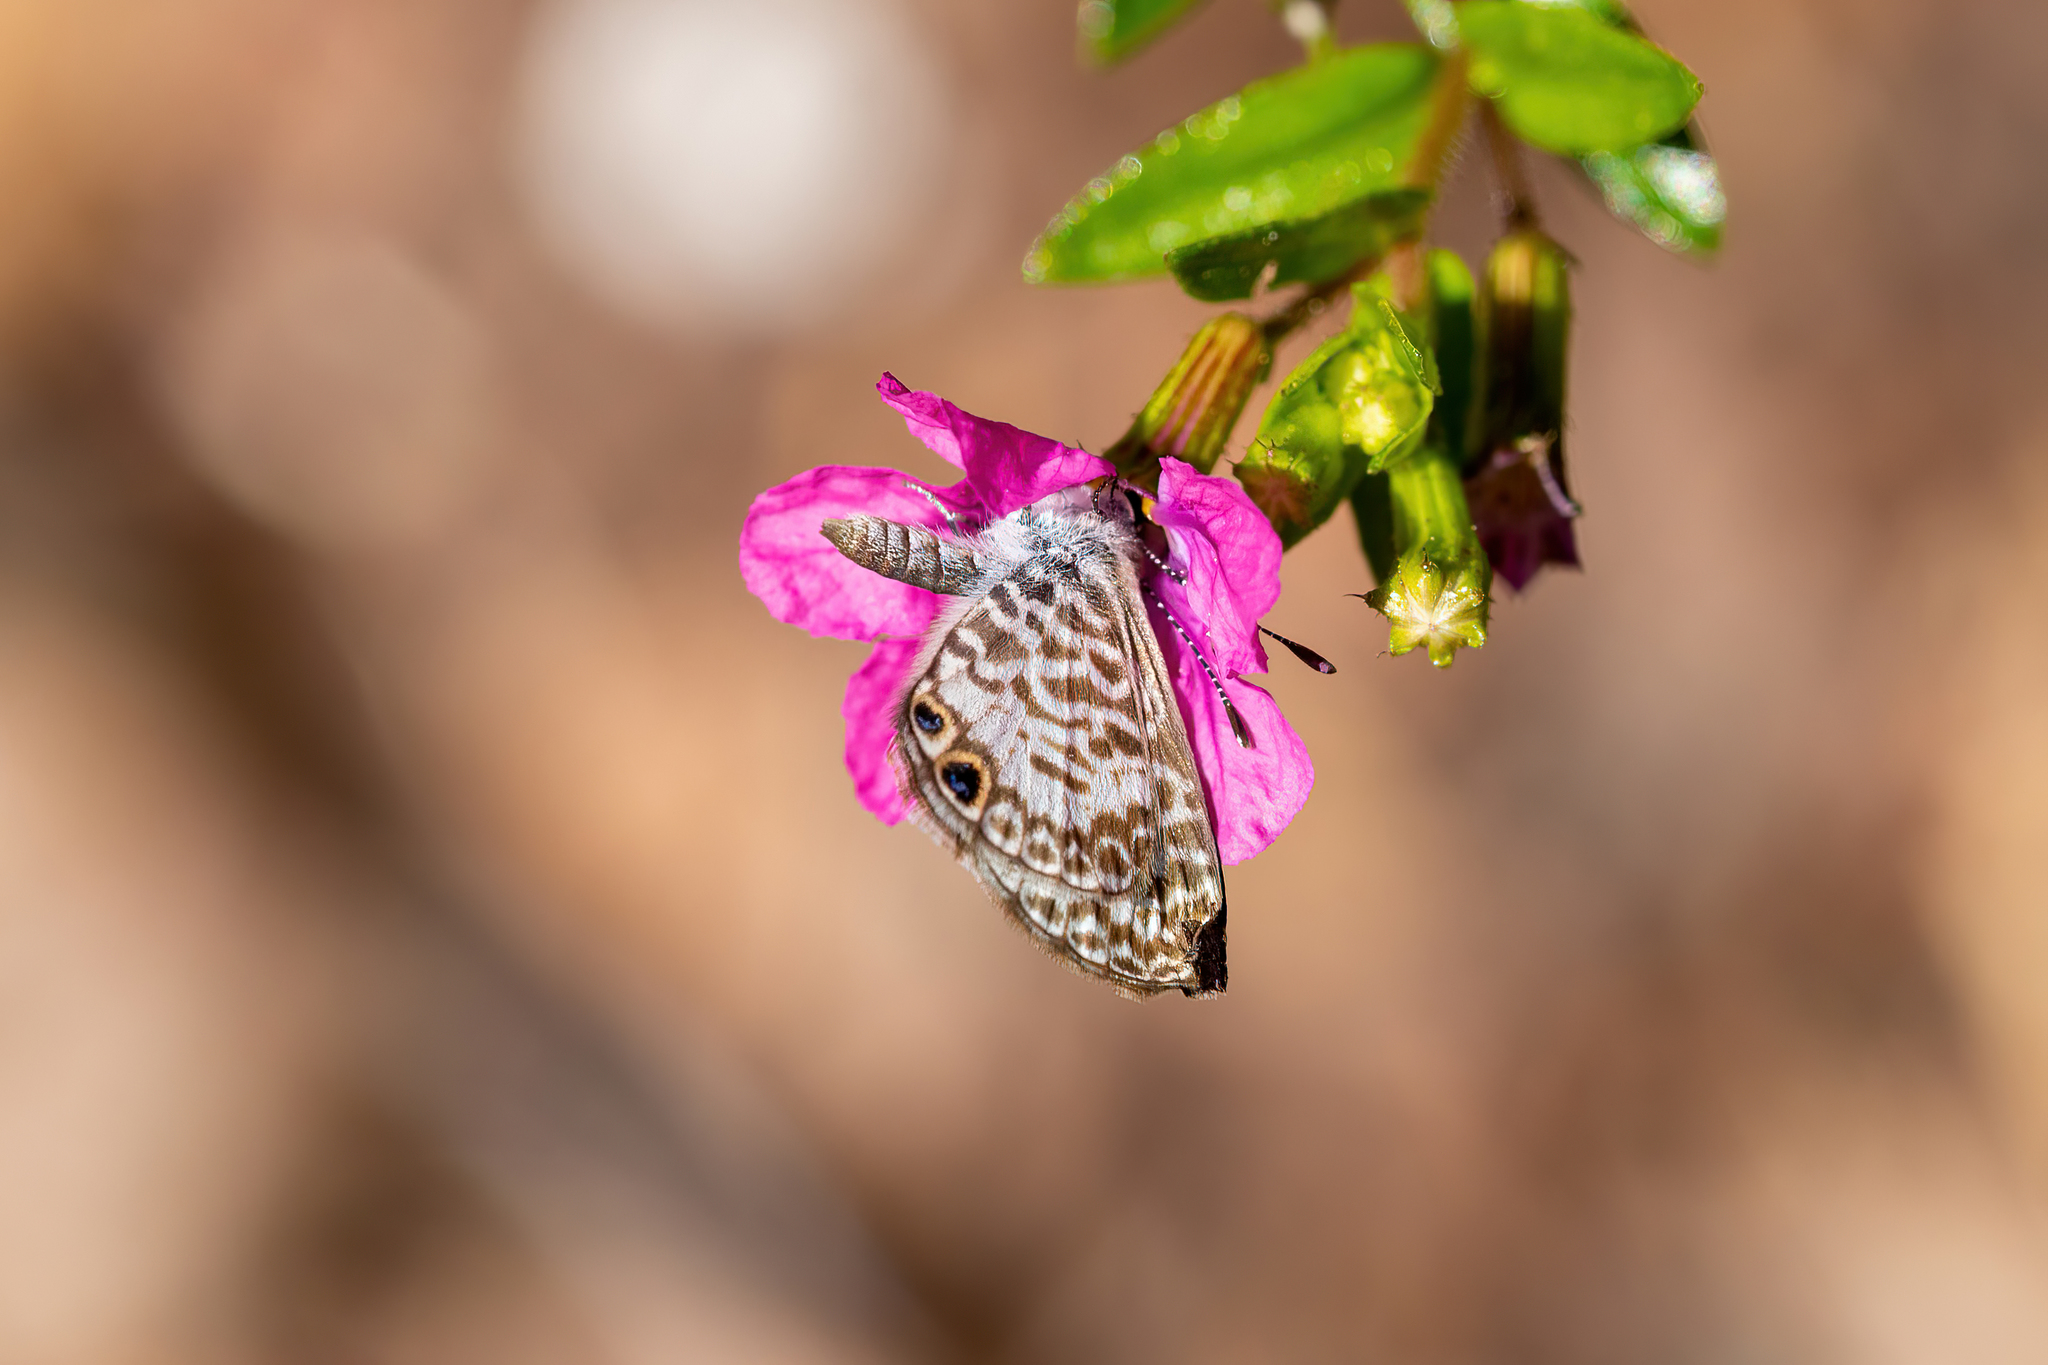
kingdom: Animalia
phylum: Arthropoda
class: Insecta
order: Lepidoptera
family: Lycaenidae
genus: Leptotes
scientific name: Leptotes cassius
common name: Cassius blue
